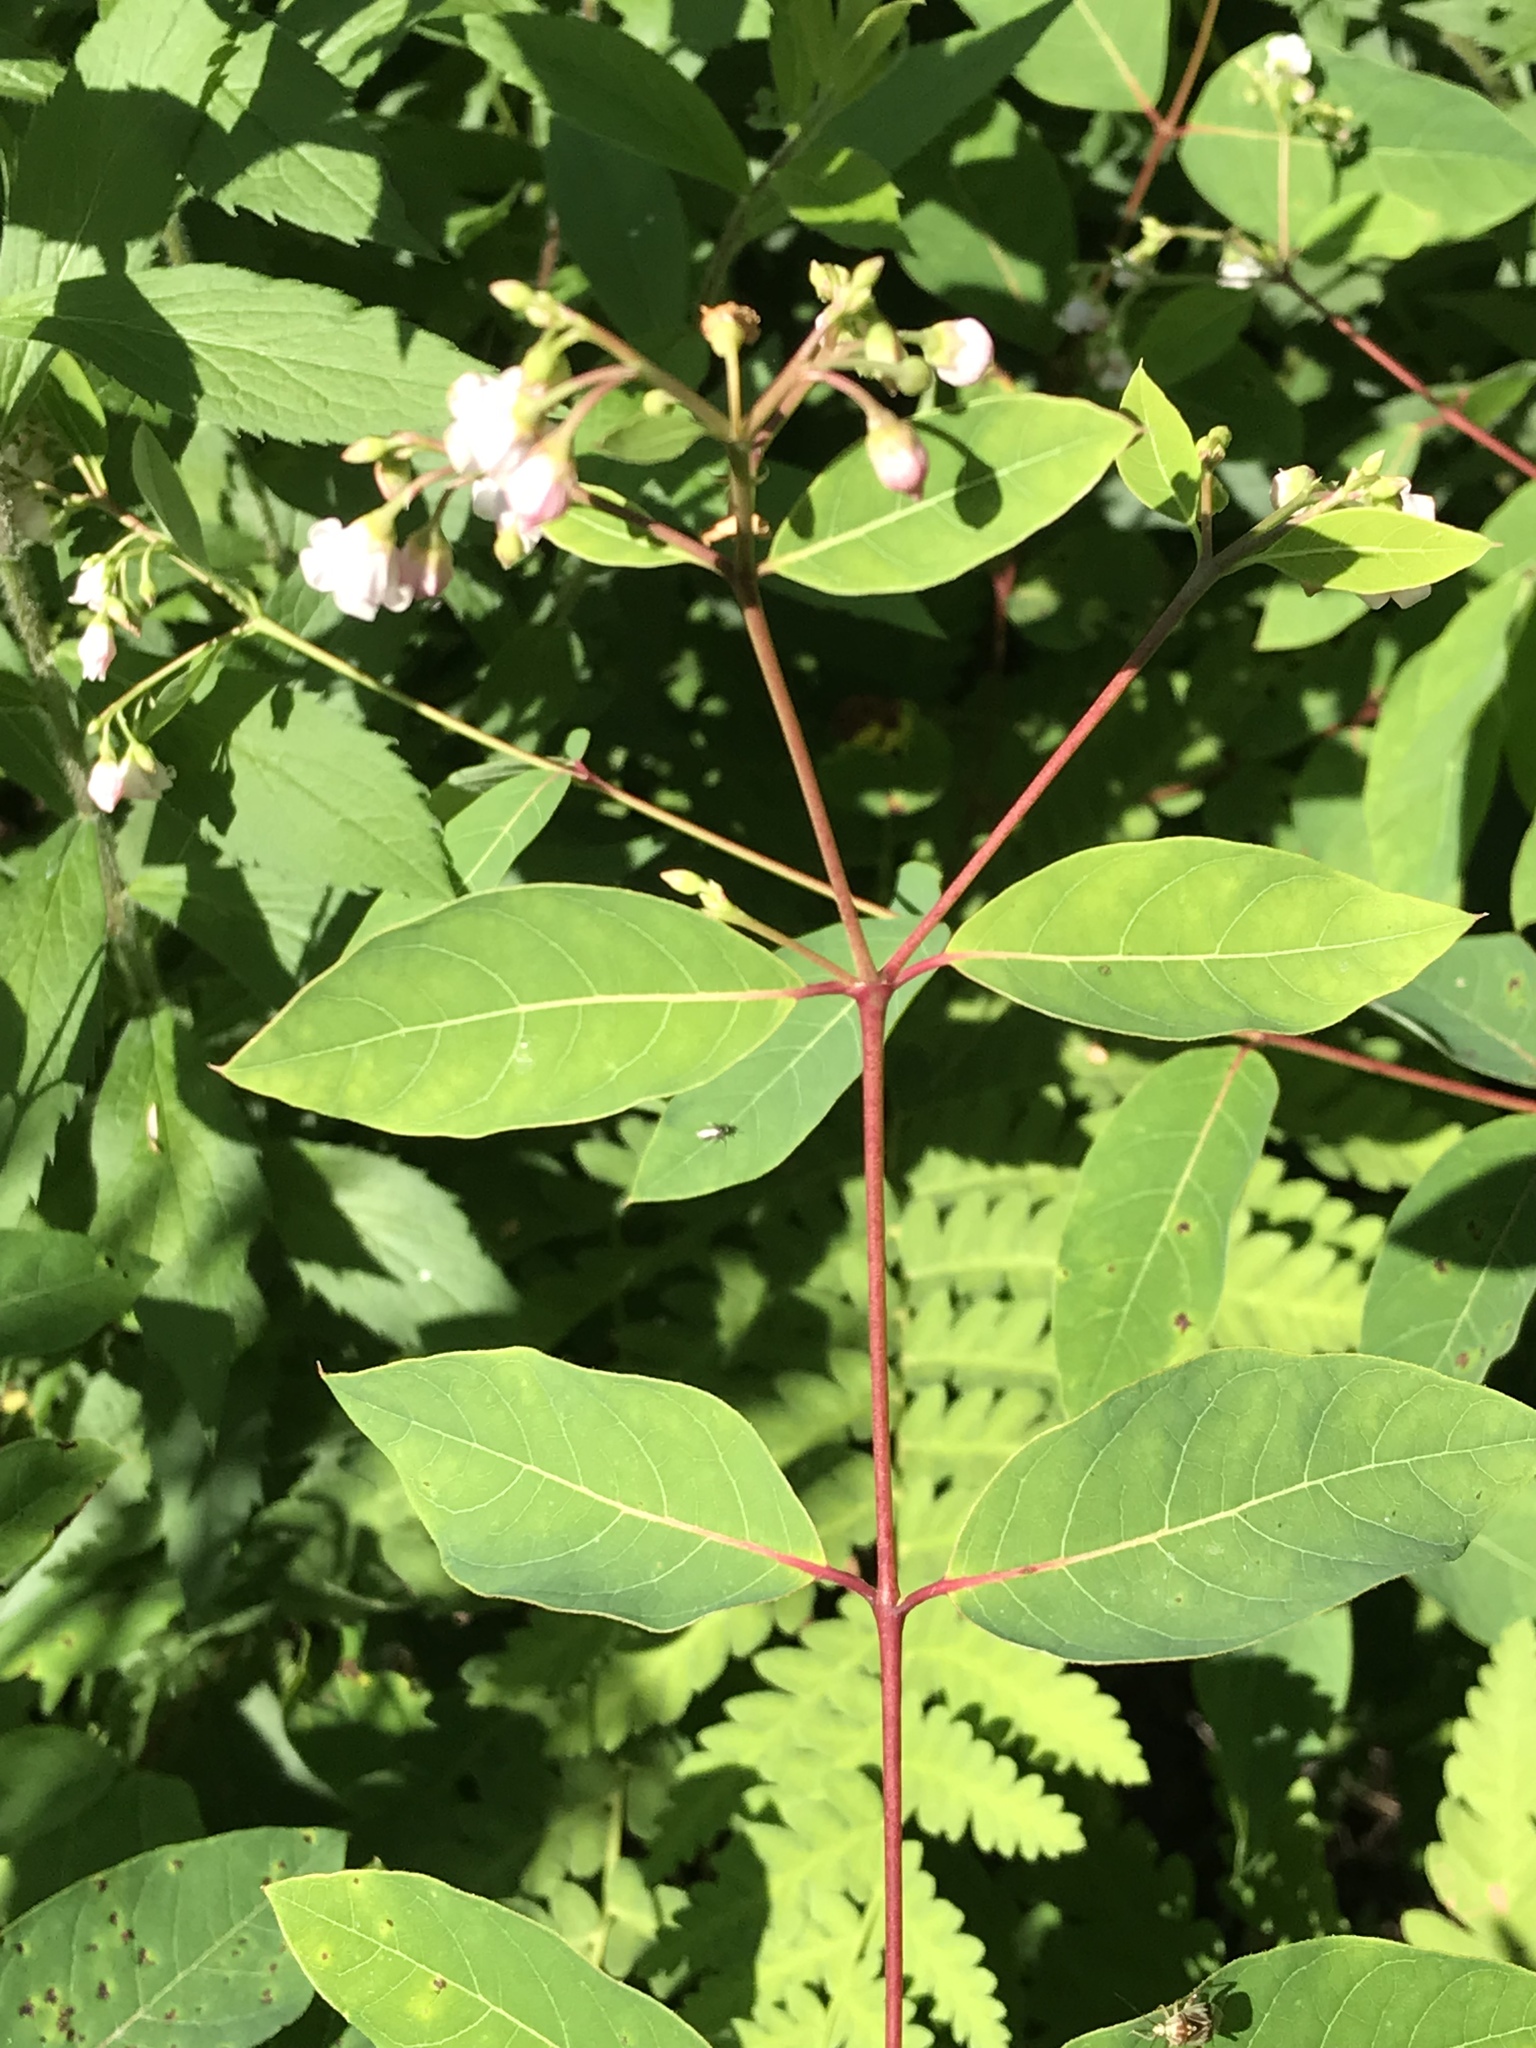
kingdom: Plantae
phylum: Tracheophyta
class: Magnoliopsida
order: Gentianales
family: Apocynaceae
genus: Apocynum
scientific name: Apocynum androsaemifolium
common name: Spreading dogbane
